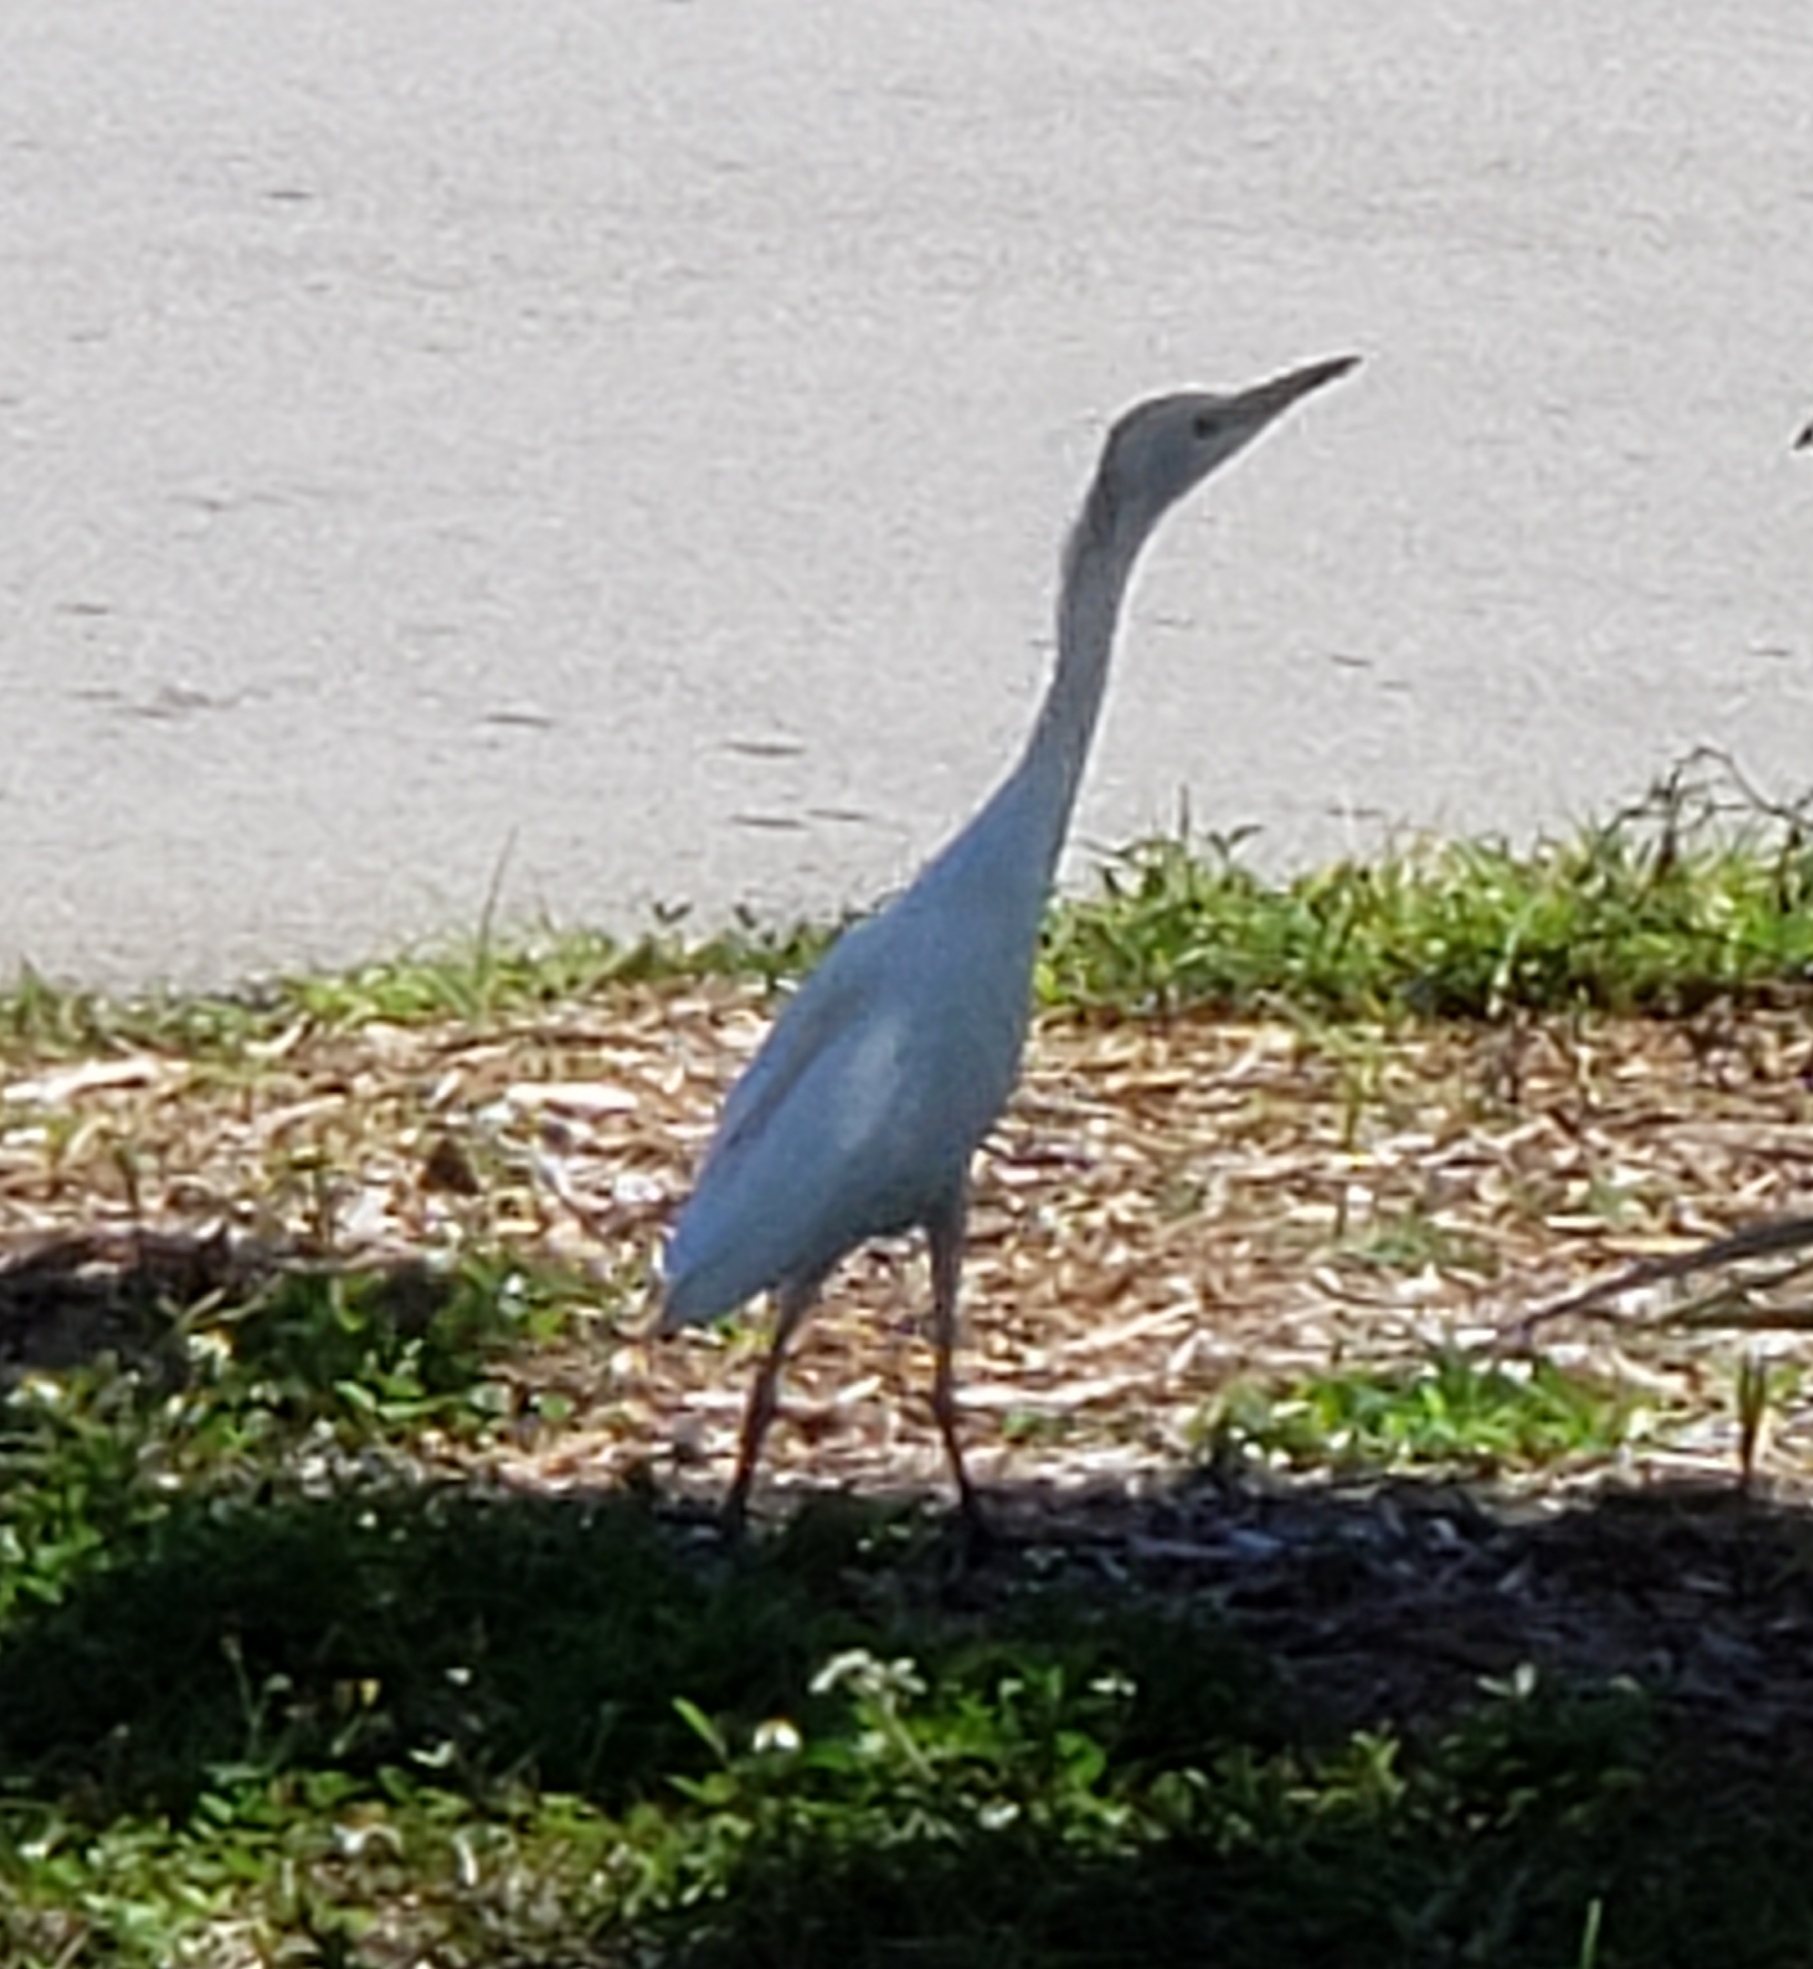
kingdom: Animalia
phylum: Chordata
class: Aves
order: Pelecaniformes
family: Ardeidae
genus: Bubulcus
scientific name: Bubulcus ibis
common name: Cattle egret
